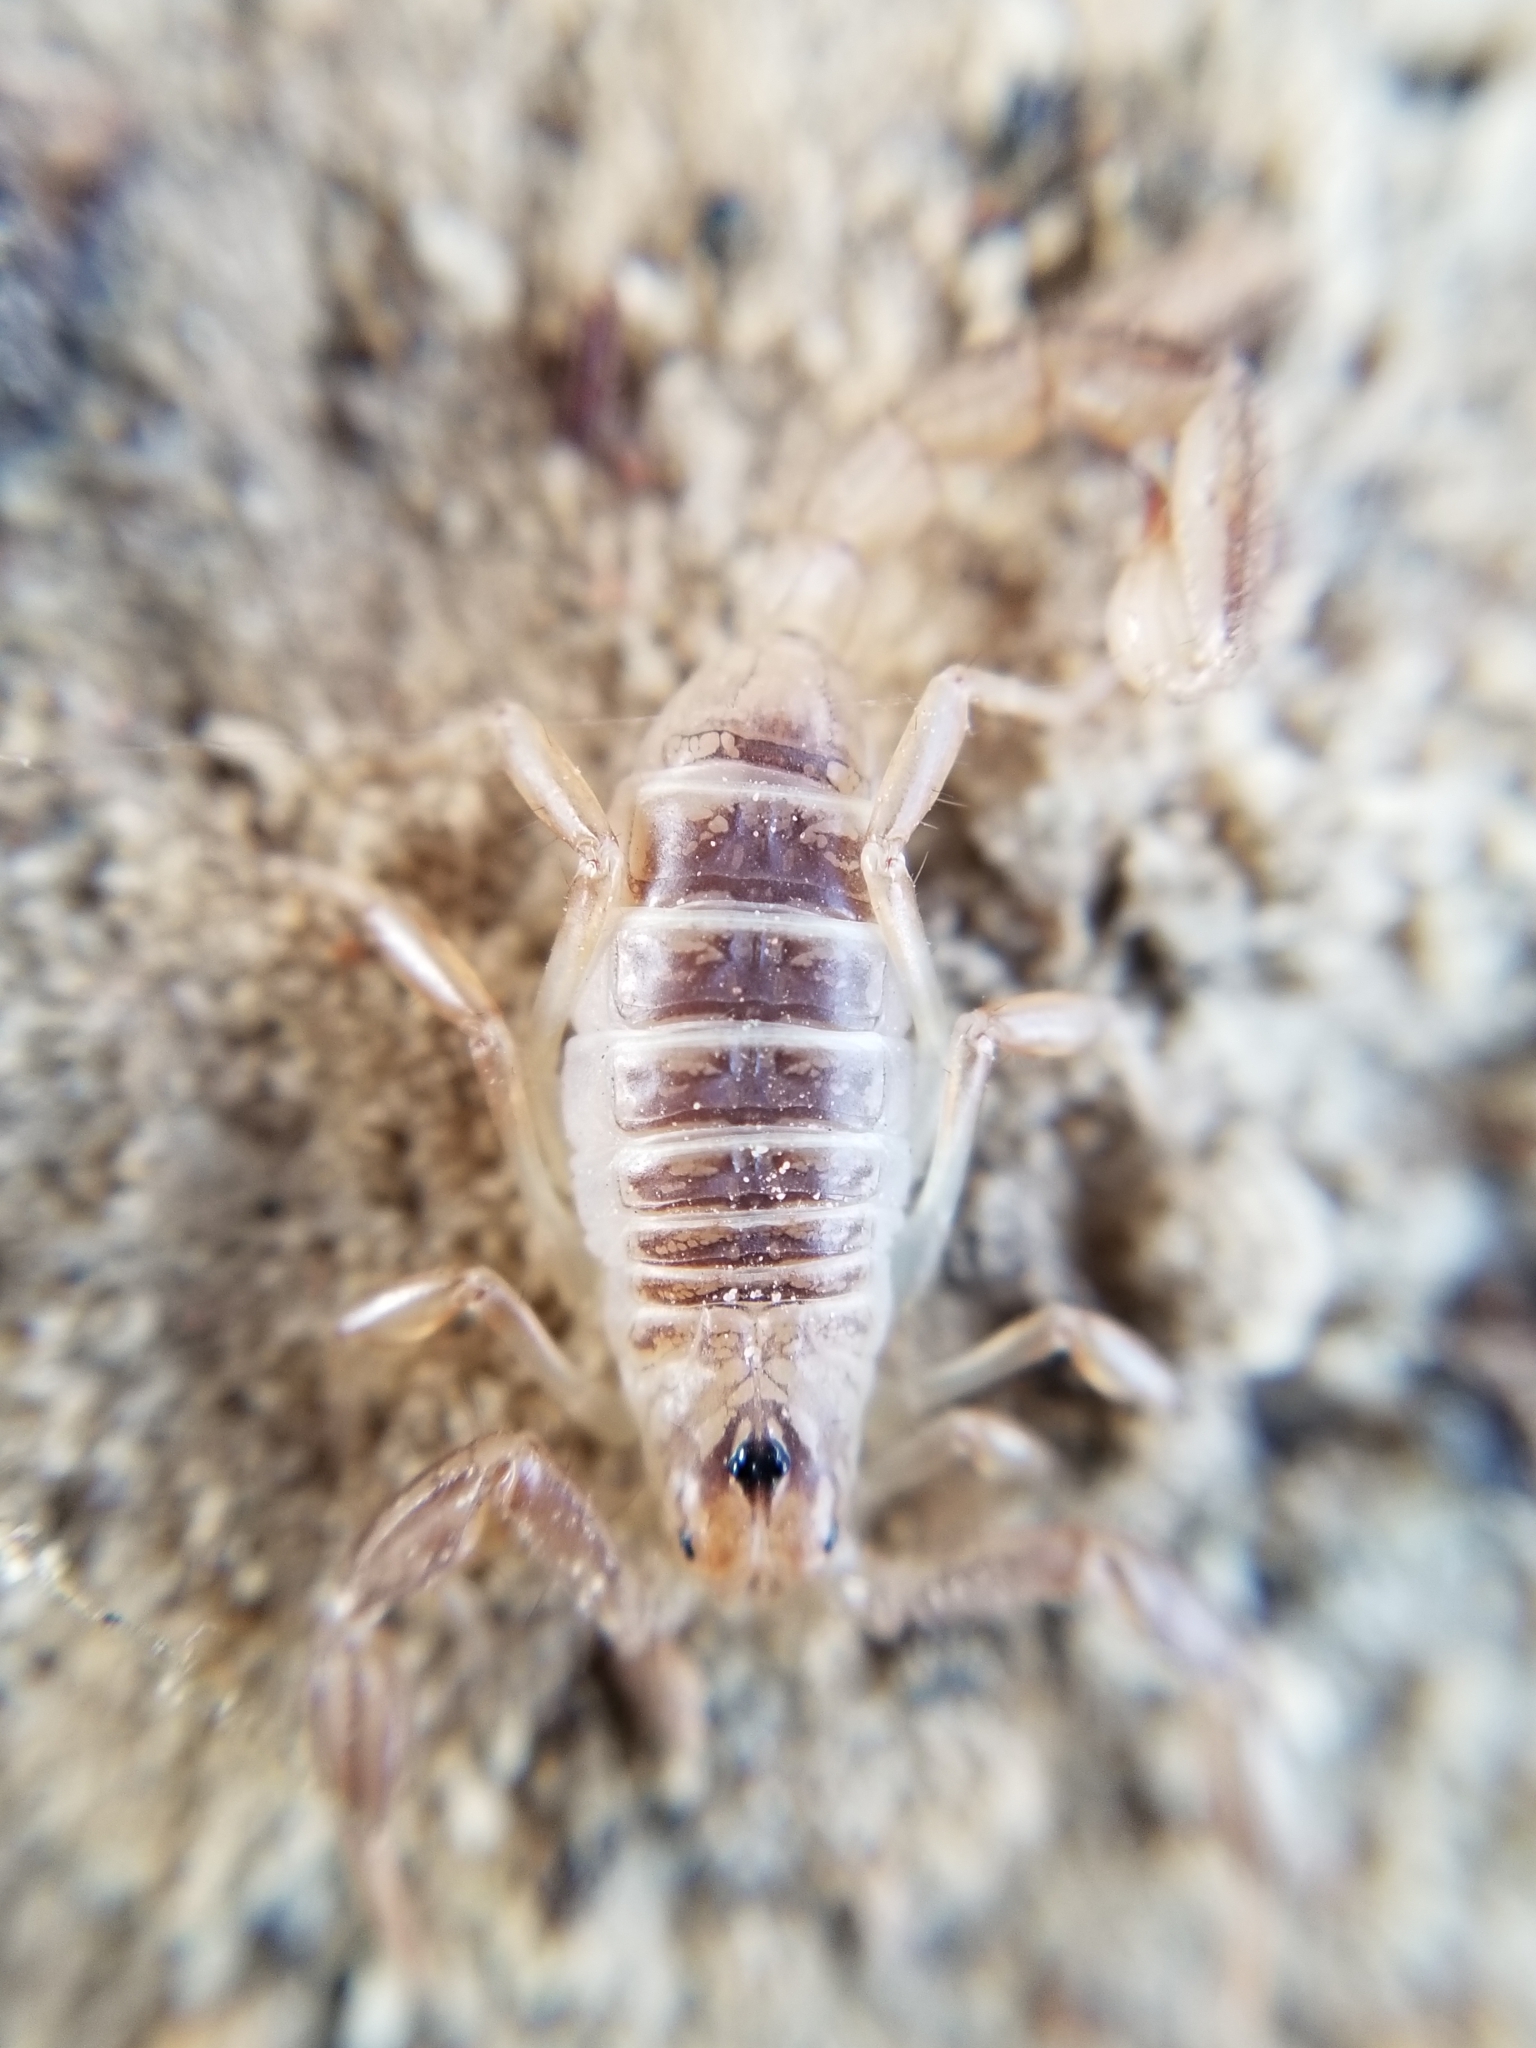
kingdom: Animalia
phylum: Arthropoda
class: Arachnida
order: Scorpiones
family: Vaejovidae
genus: Paruroctonus
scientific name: Paruroctonus boreus
